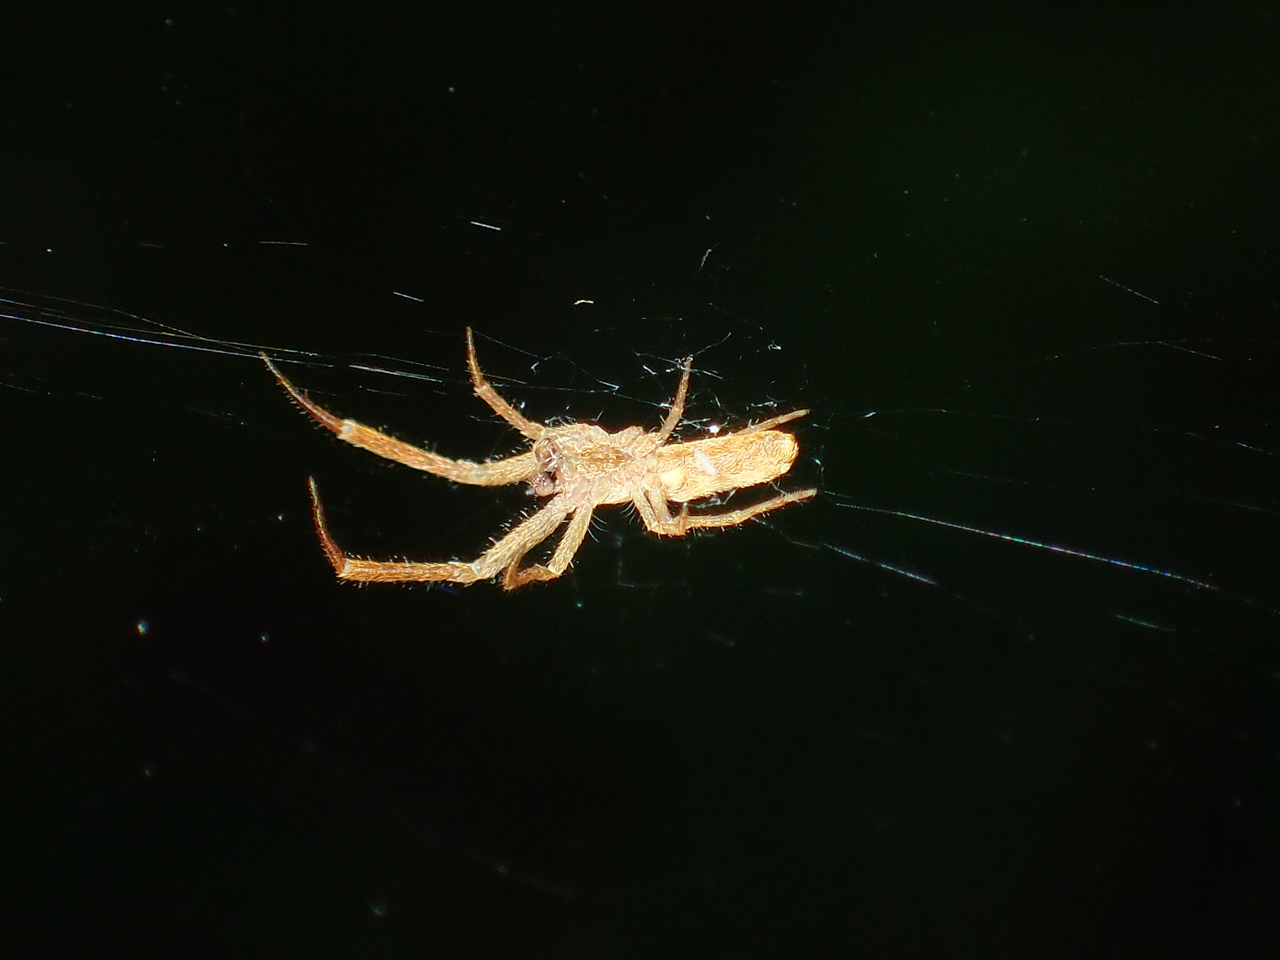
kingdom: Animalia
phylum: Arthropoda
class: Arachnida
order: Araneae
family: Uloboridae
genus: Uloborus
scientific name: Uloborus glomosus
